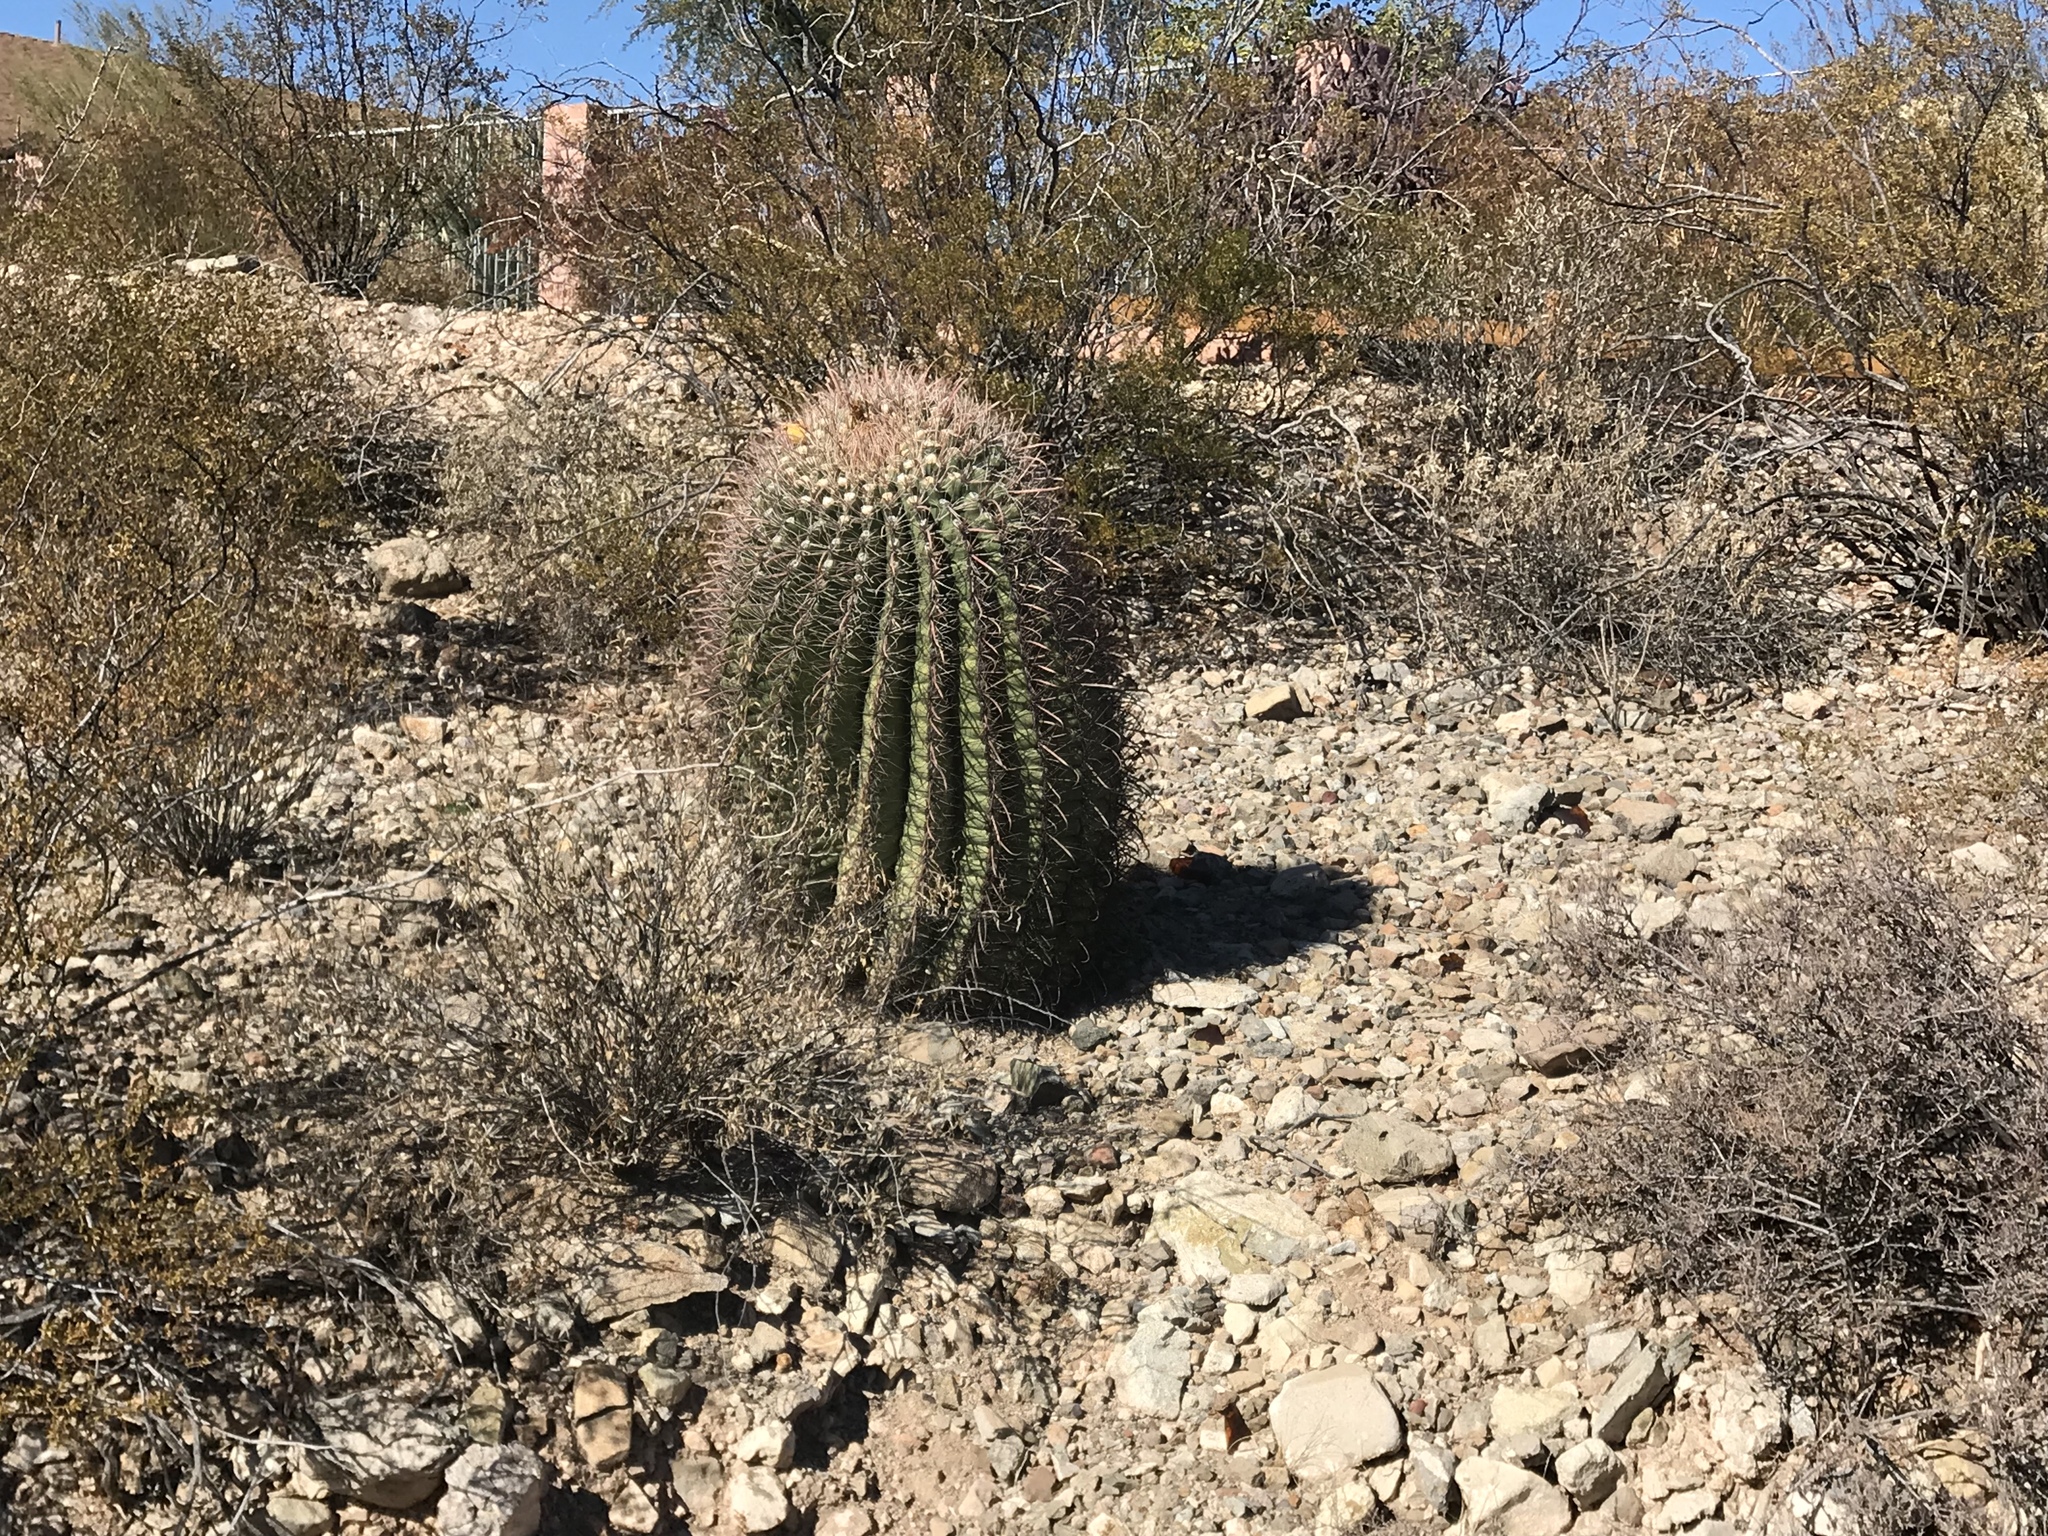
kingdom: Plantae
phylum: Tracheophyta
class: Magnoliopsida
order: Caryophyllales
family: Cactaceae
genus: Ferocactus
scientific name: Ferocactus wislizeni
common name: Candy barrel cactus
